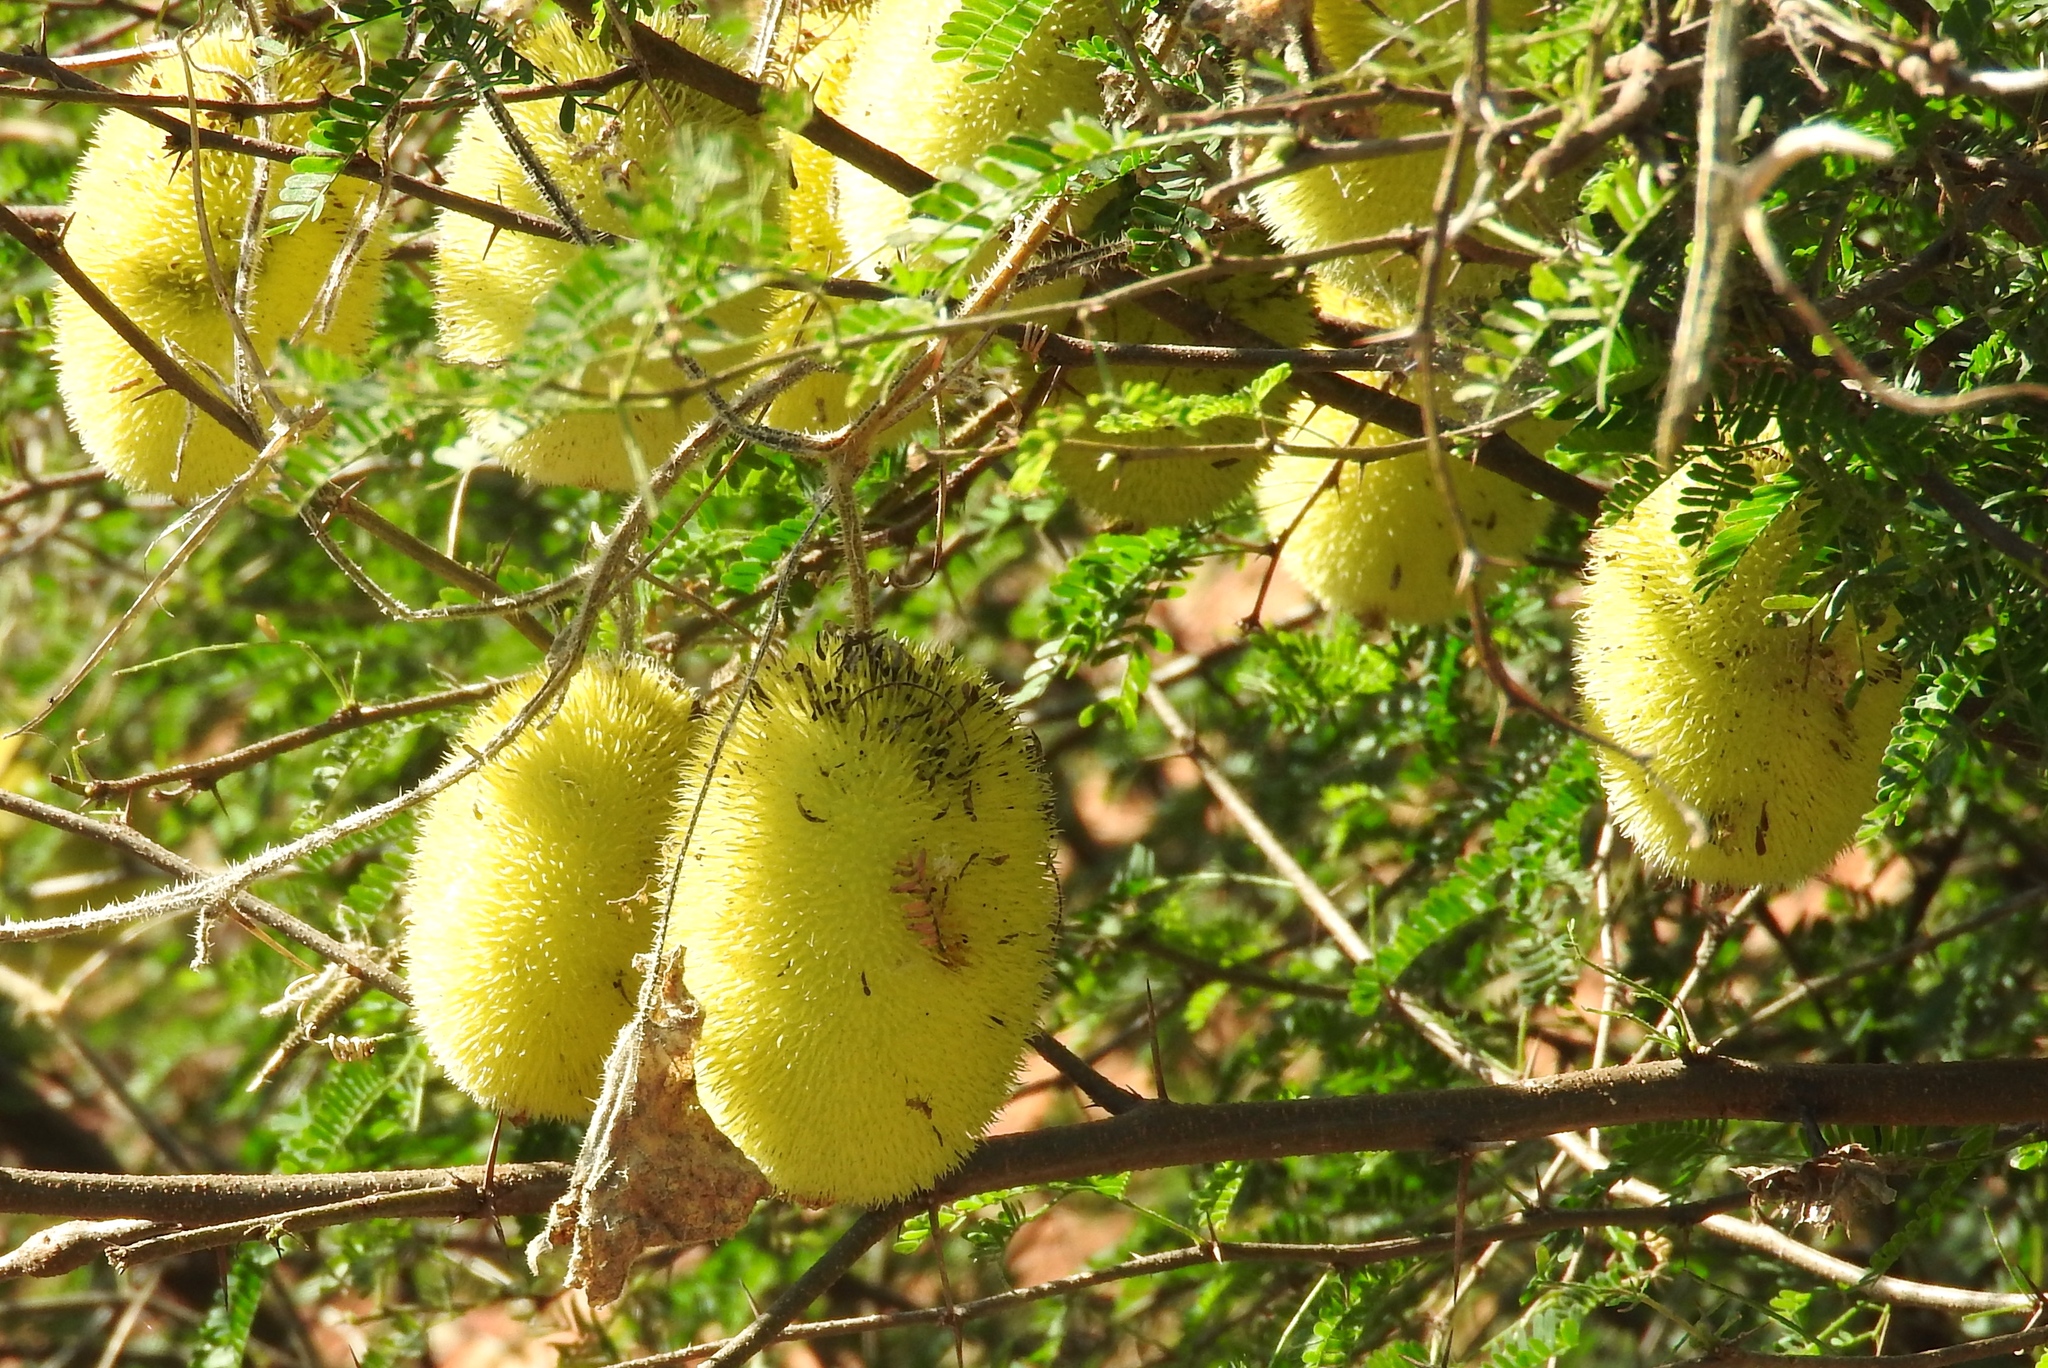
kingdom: Plantae
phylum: Tracheophyta
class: Magnoliopsida
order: Cucurbitales
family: Cucurbitaceae
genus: Cucumis
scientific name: Cucumis dipsaceus
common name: Hedgehog gourd
